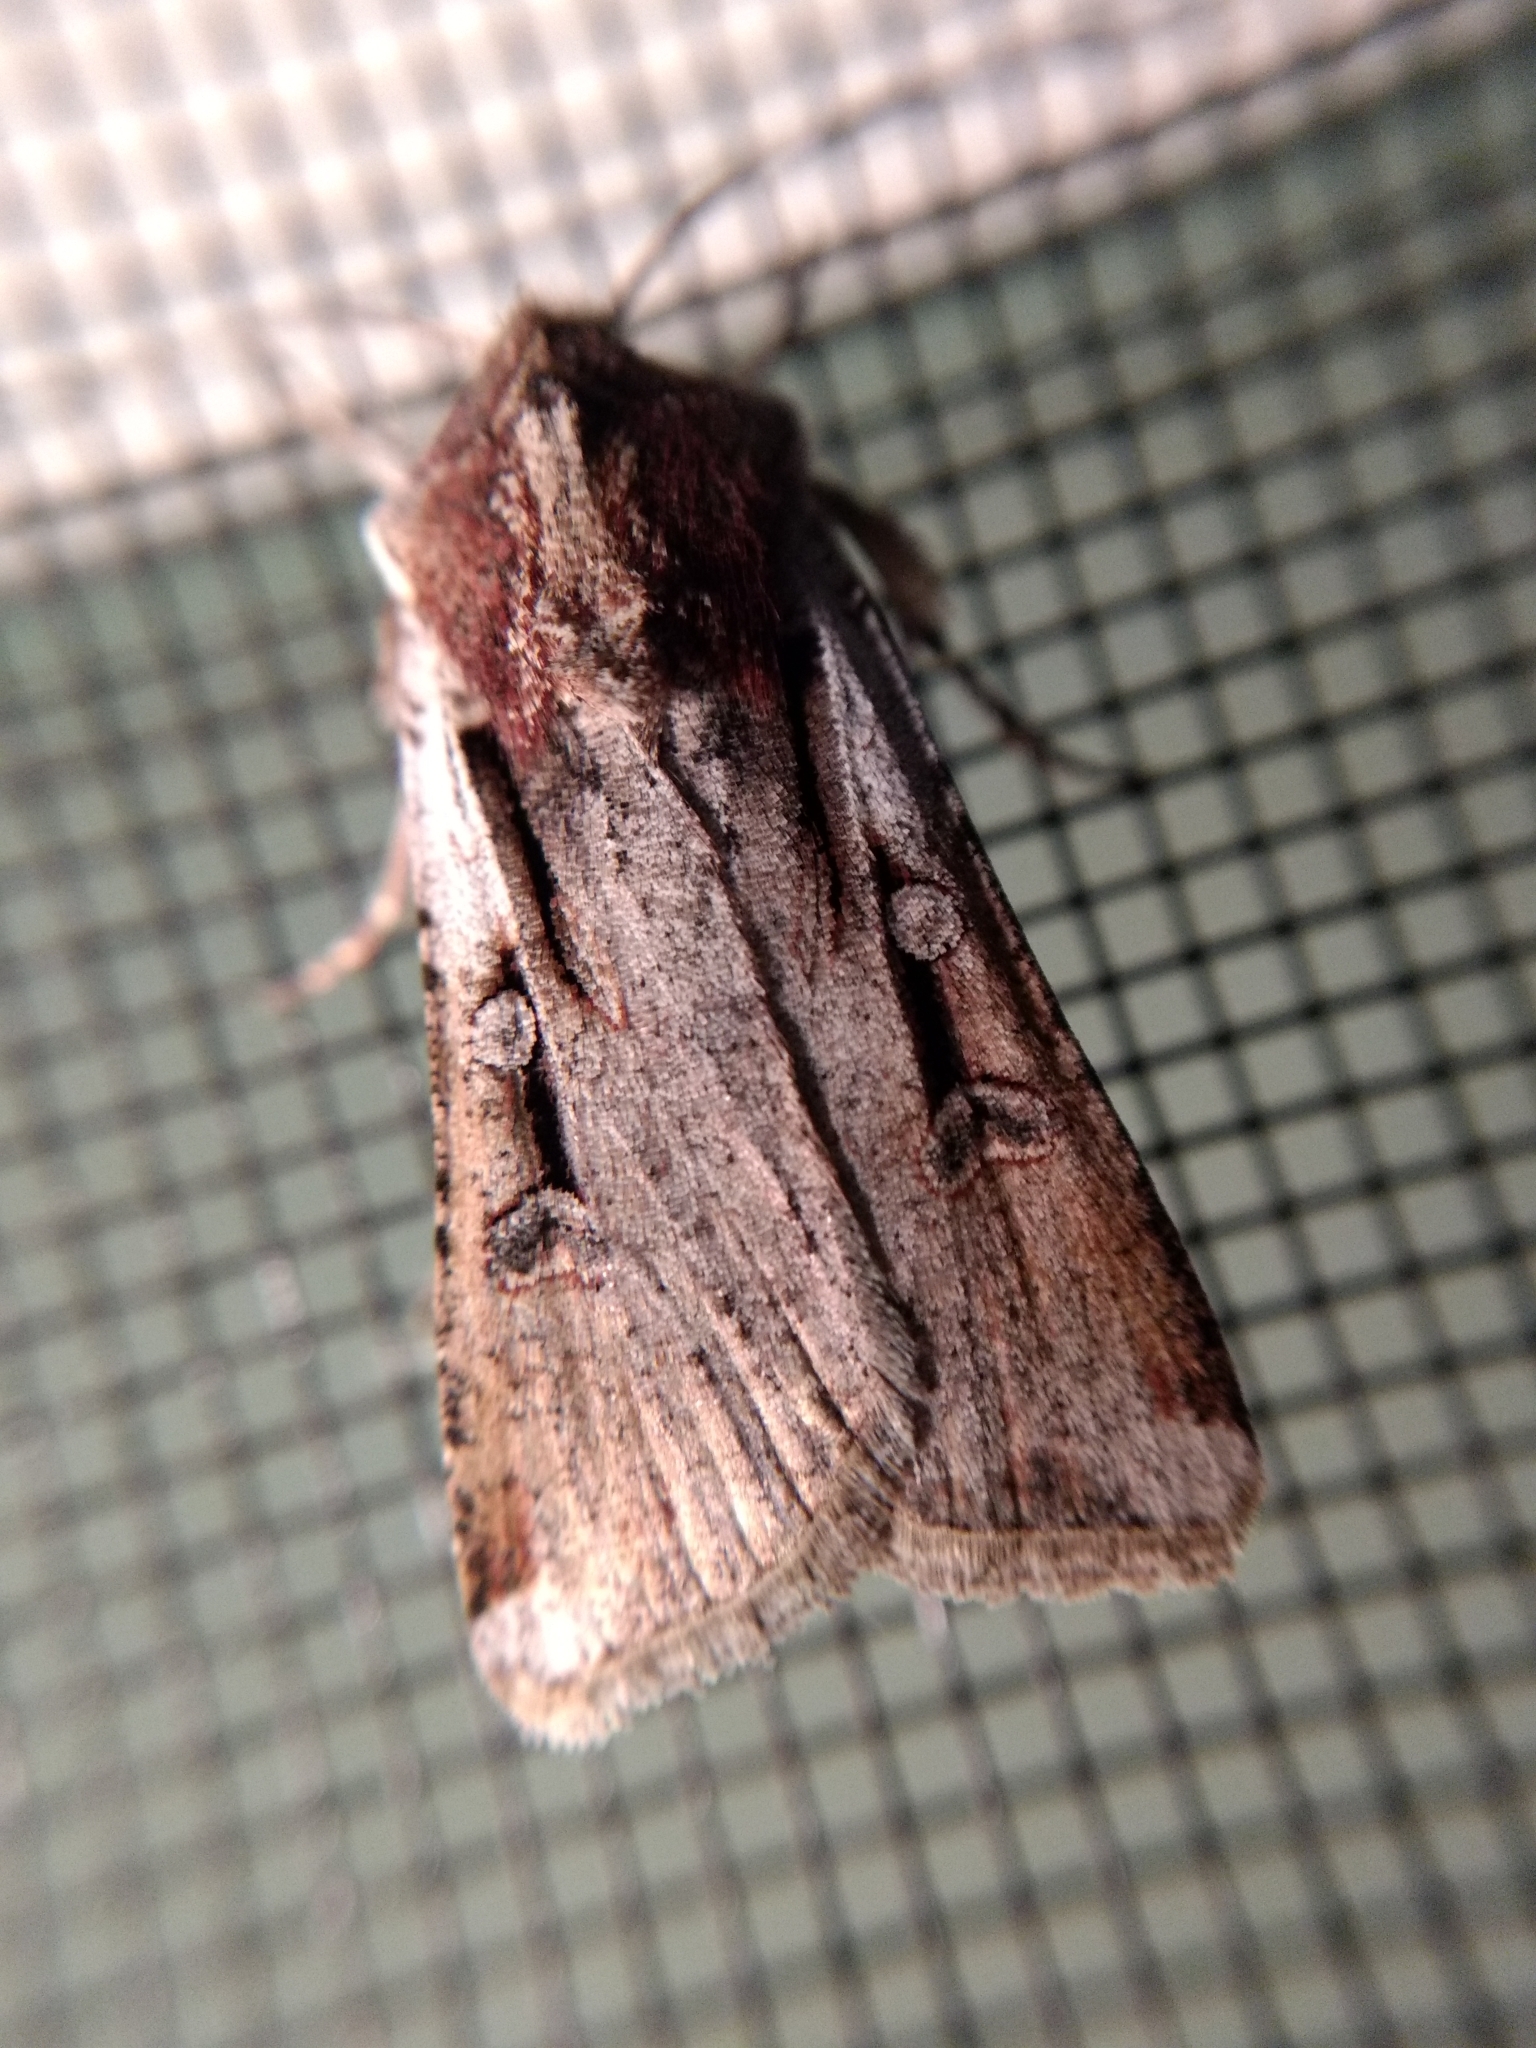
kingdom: Animalia
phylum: Arthropoda
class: Insecta
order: Lepidoptera
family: Noctuidae
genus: Hemieuxoa
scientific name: Hemieuxoa rudens
